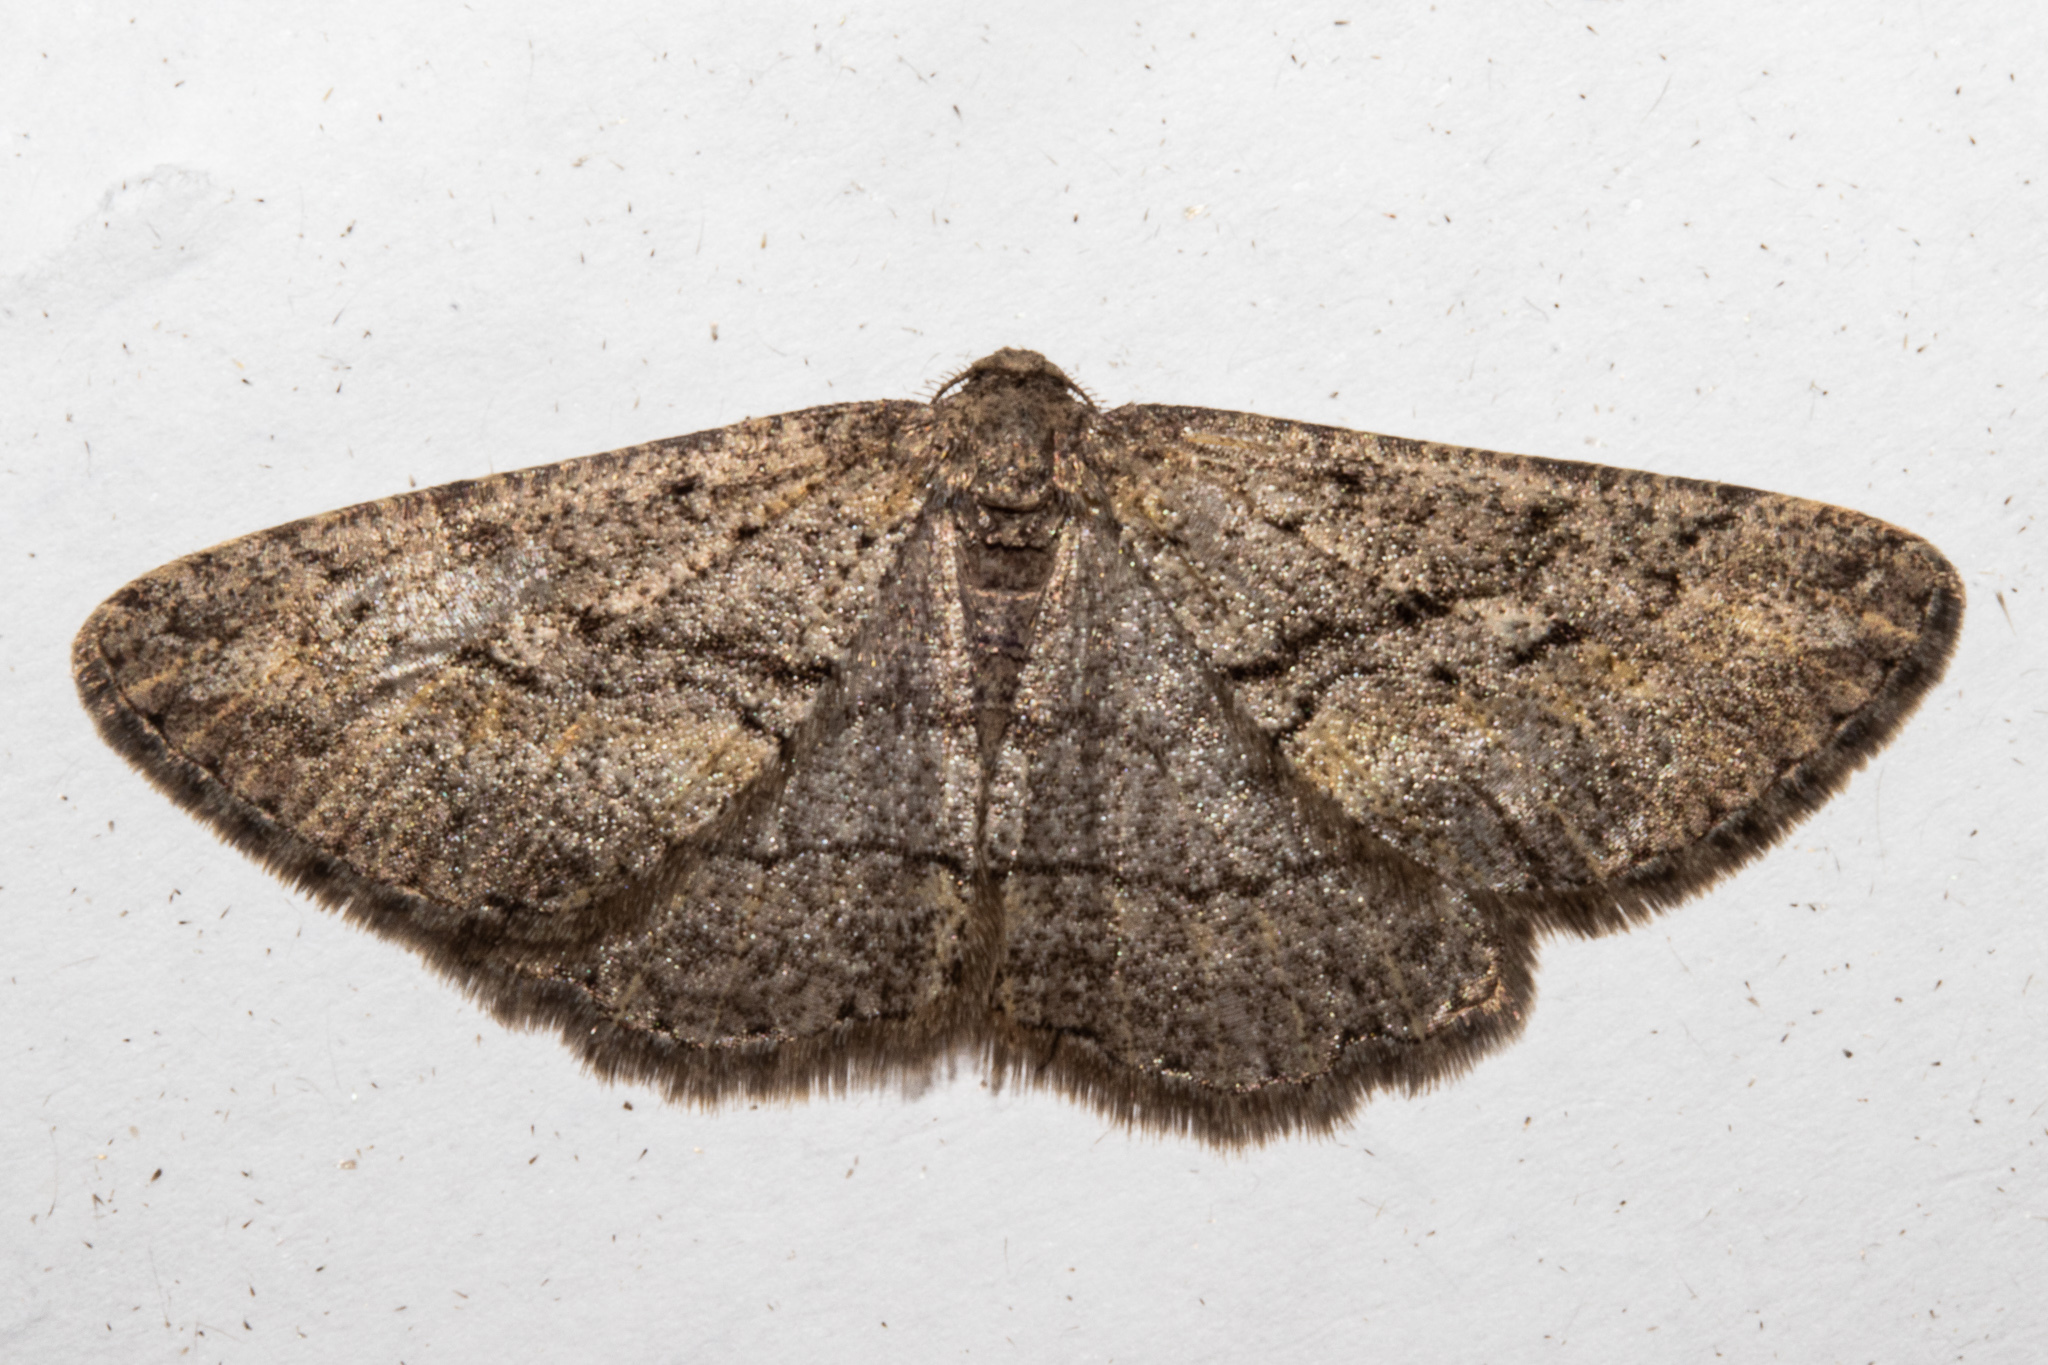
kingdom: Animalia
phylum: Arthropoda
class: Insecta
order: Lepidoptera
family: Geometridae
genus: Zermizinga
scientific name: Zermizinga indocilisaria
